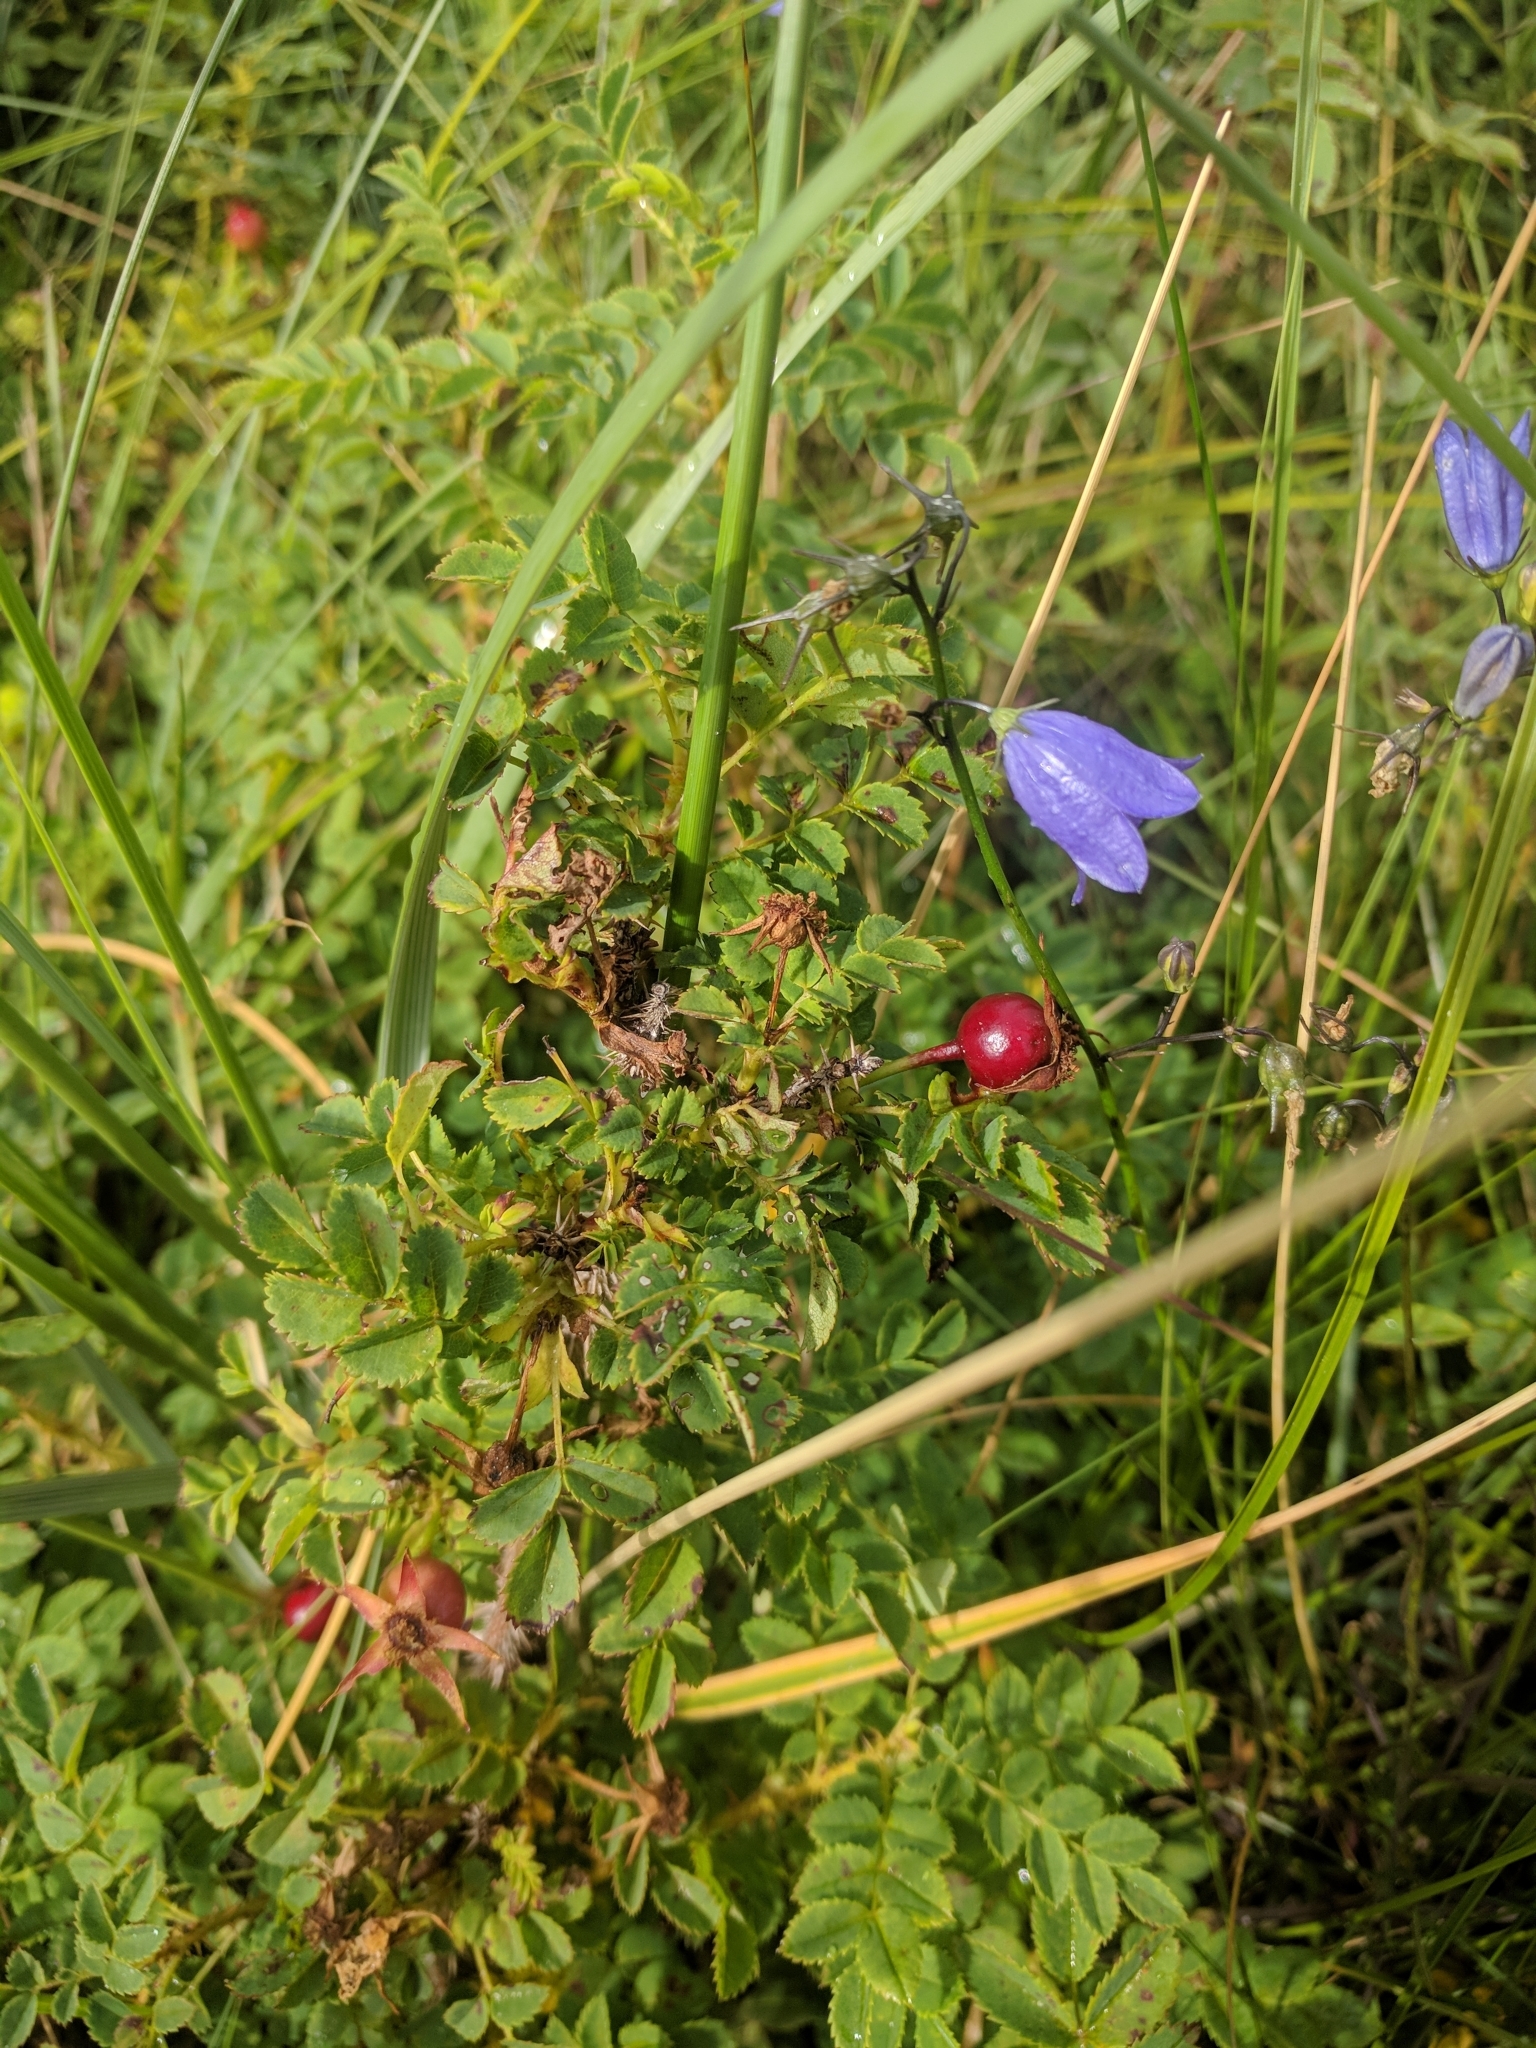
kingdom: Plantae
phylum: Tracheophyta
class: Magnoliopsida
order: Rosales
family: Rosaceae
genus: Rosa
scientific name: Rosa spinosissima
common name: Burnet rose
